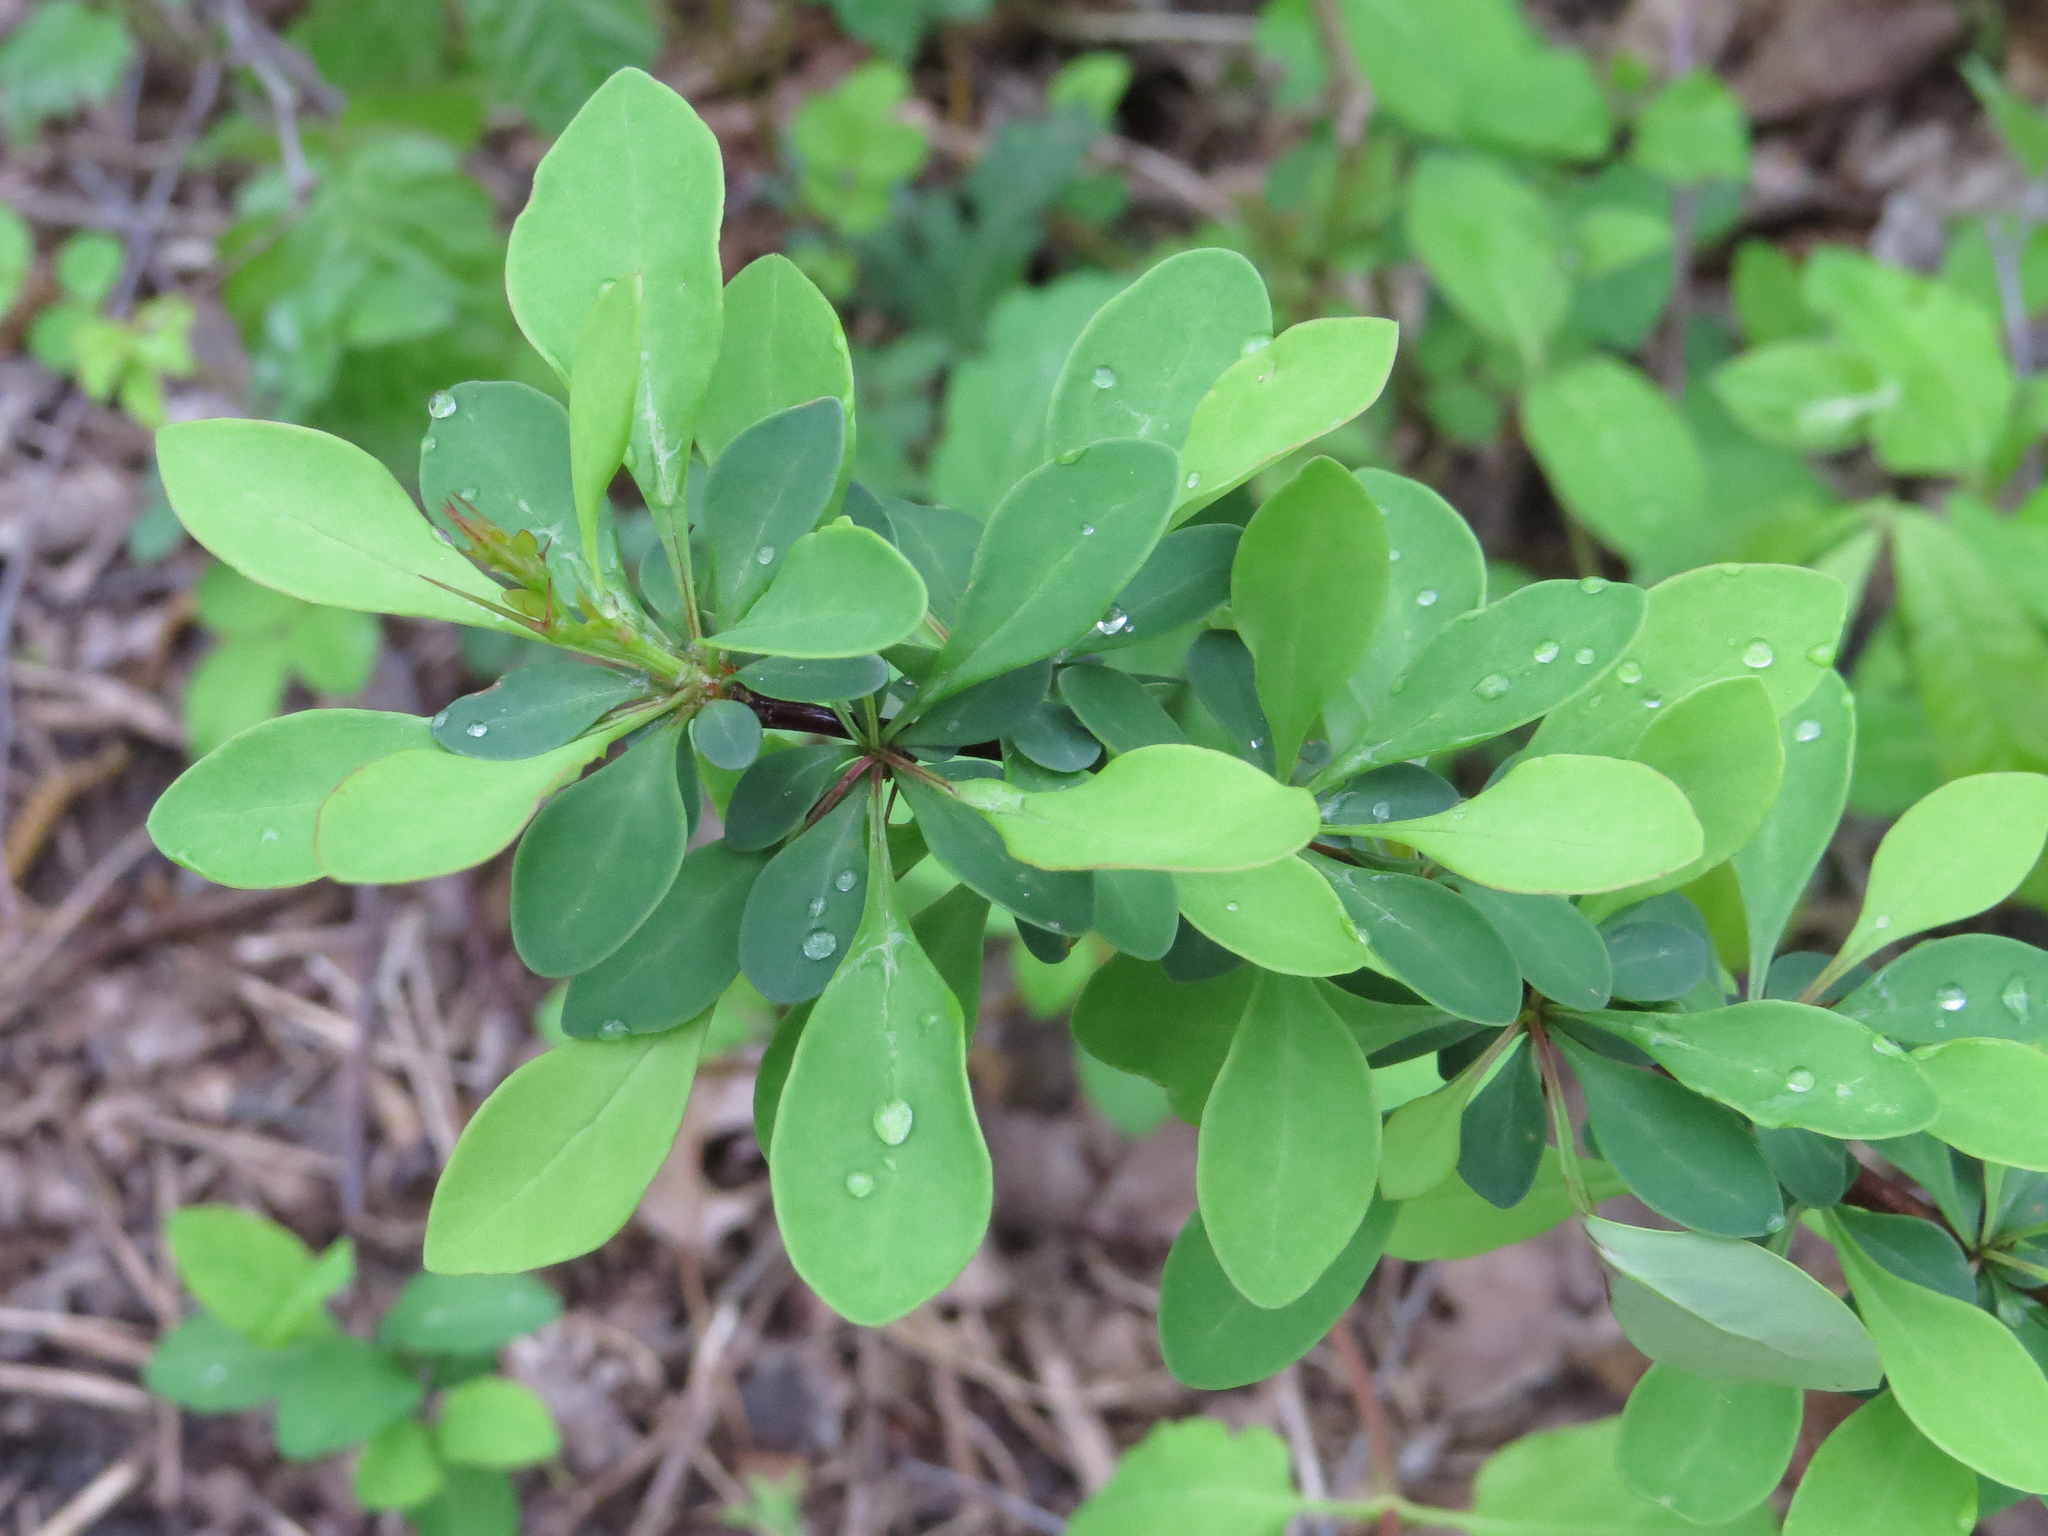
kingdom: Plantae
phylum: Tracheophyta
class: Magnoliopsida
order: Ranunculales
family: Berberidaceae
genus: Berberis
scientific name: Berberis thunbergii
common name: Japanese barberry
